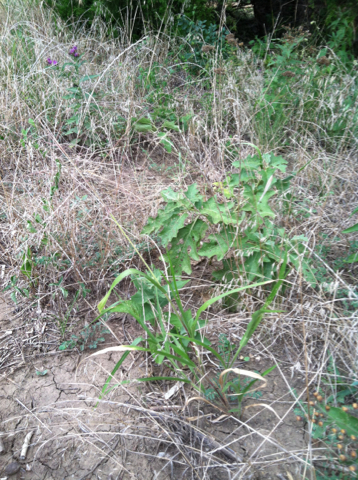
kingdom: Plantae
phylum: Tracheophyta
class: Liliopsida
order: Poales
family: Poaceae
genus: Panicum
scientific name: Panicum capillare
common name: Witch-grass
